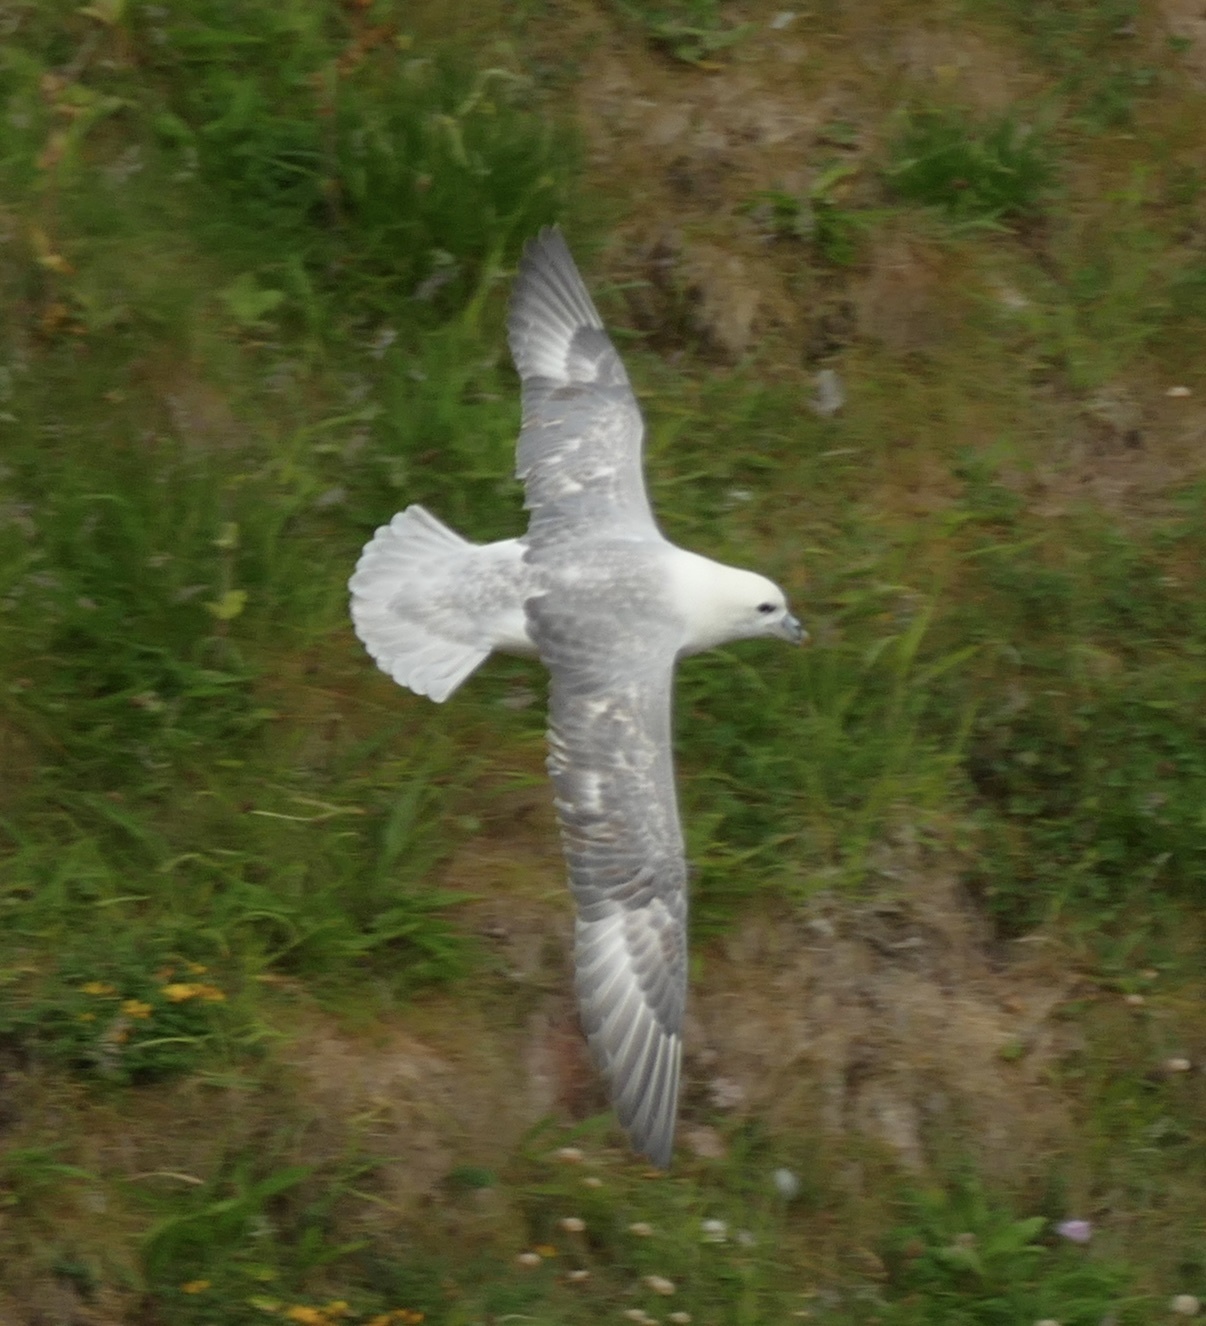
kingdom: Animalia
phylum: Chordata
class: Aves
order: Procellariiformes
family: Procellariidae
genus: Fulmarus
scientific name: Fulmarus glacialis
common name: Northern fulmar
